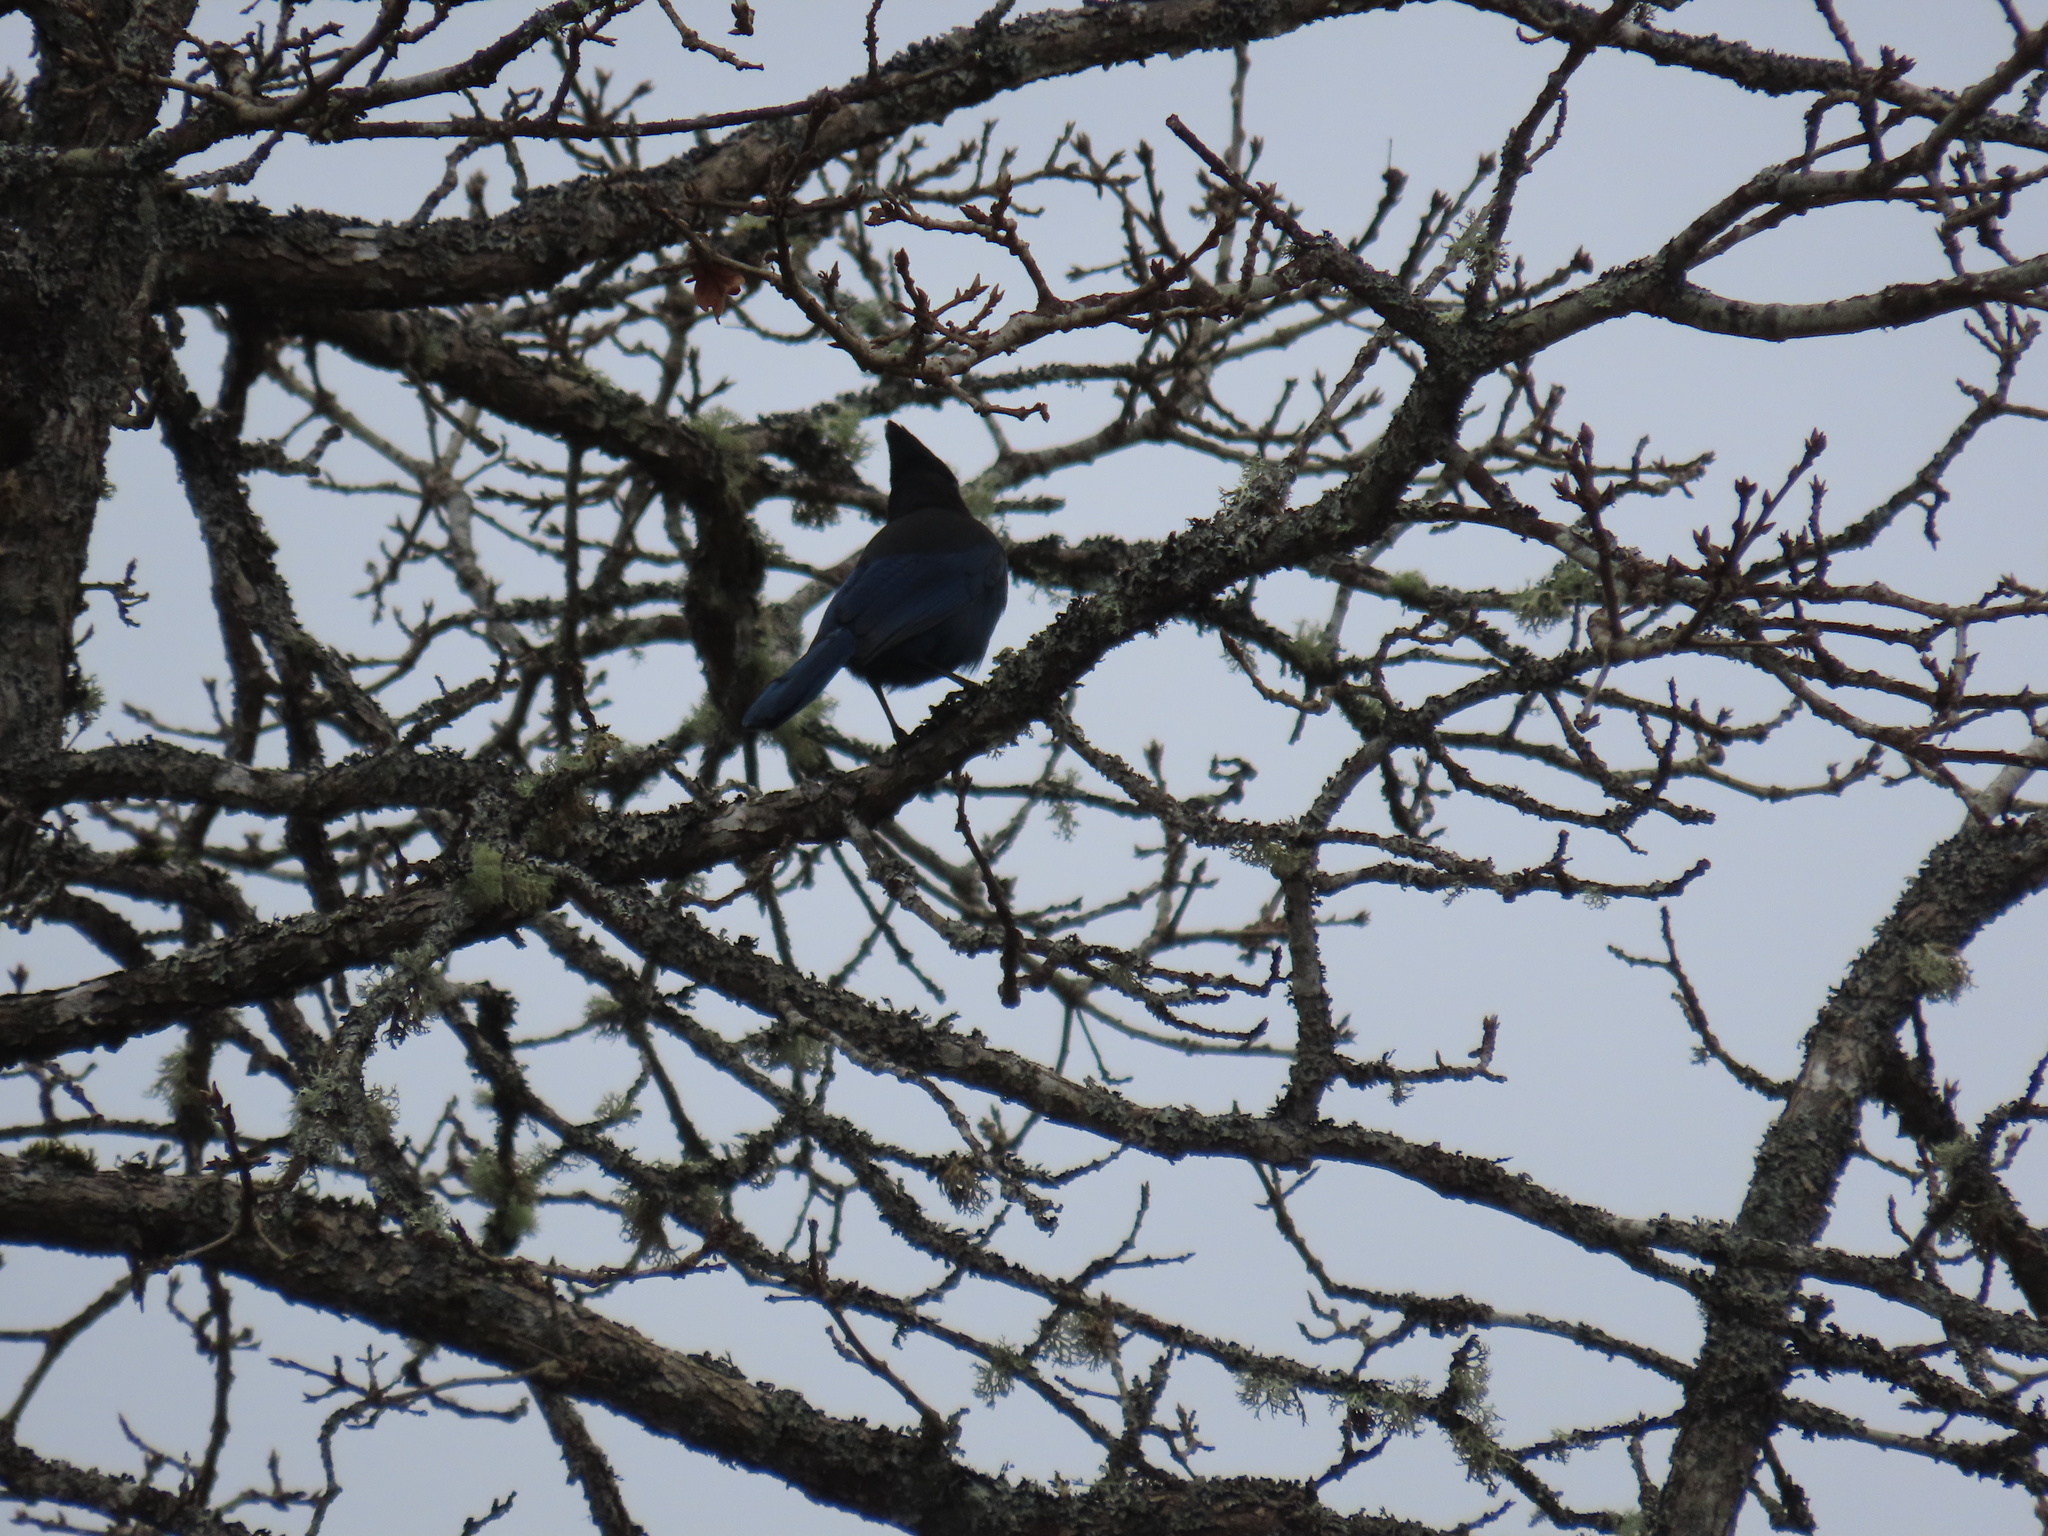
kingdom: Animalia
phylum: Chordata
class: Aves
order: Passeriformes
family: Corvidae
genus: Cyanocitta
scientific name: Cyanocitta stelleri
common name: Steller's jay
